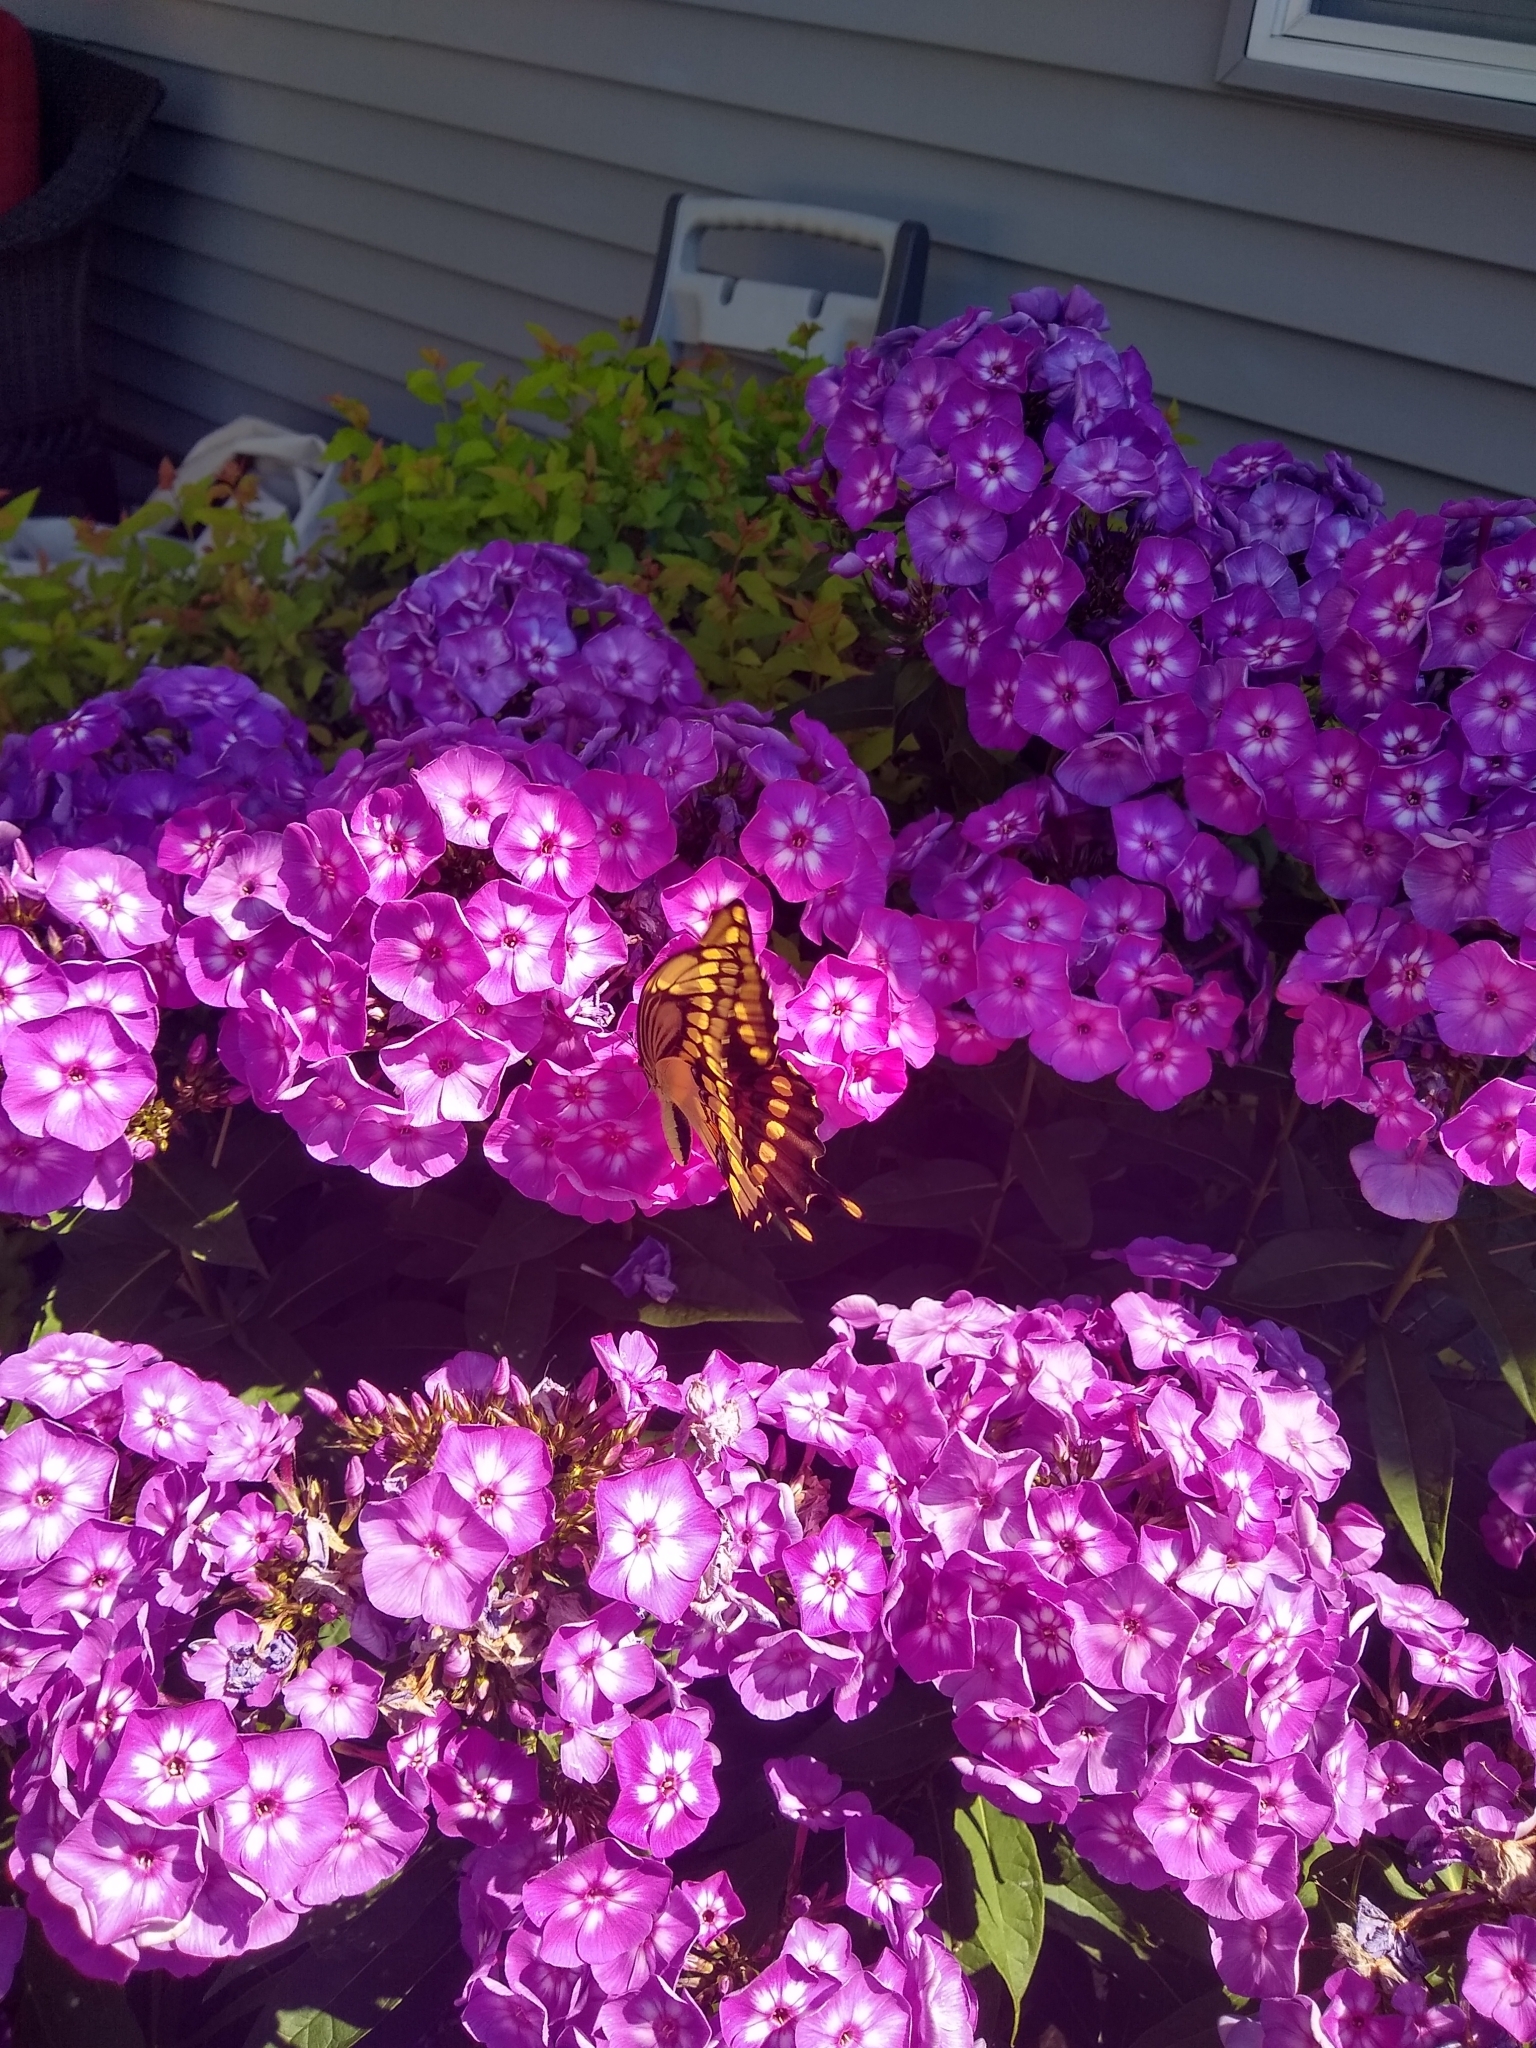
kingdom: Animalia
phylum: Arthropoda
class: Insecta
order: Lepidoptera
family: Papilionidae
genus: Papilio
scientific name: Papilio cresphontes
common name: Giant swallowtail
